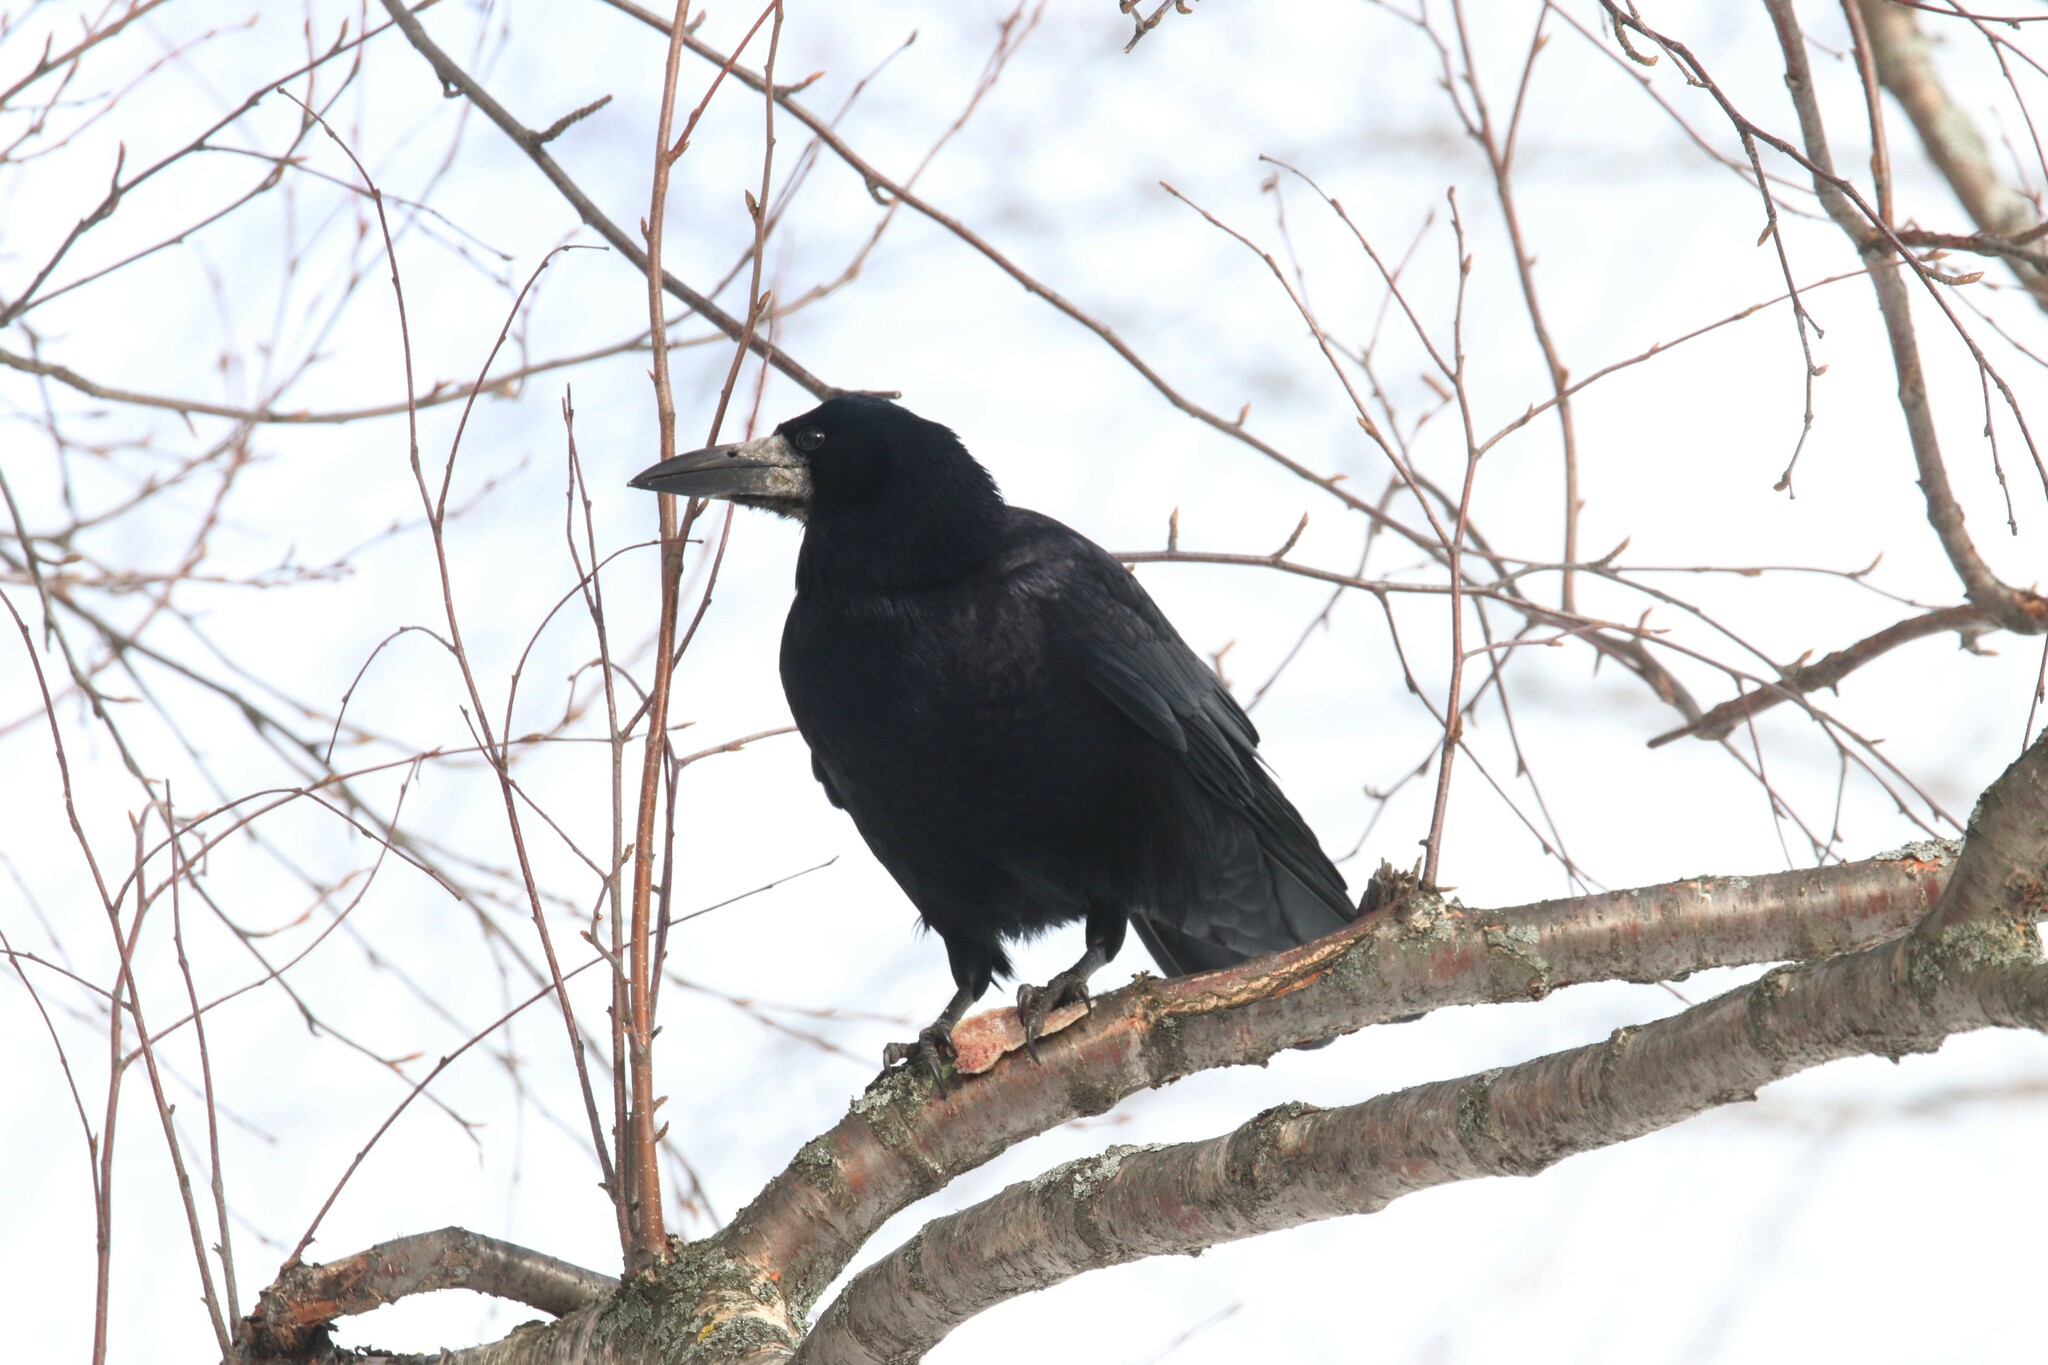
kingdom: Animalia
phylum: Chordata
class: Aves
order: Passeriformes
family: Corvidae
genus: Corvus
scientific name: Corvus frugilegus
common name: Rook
